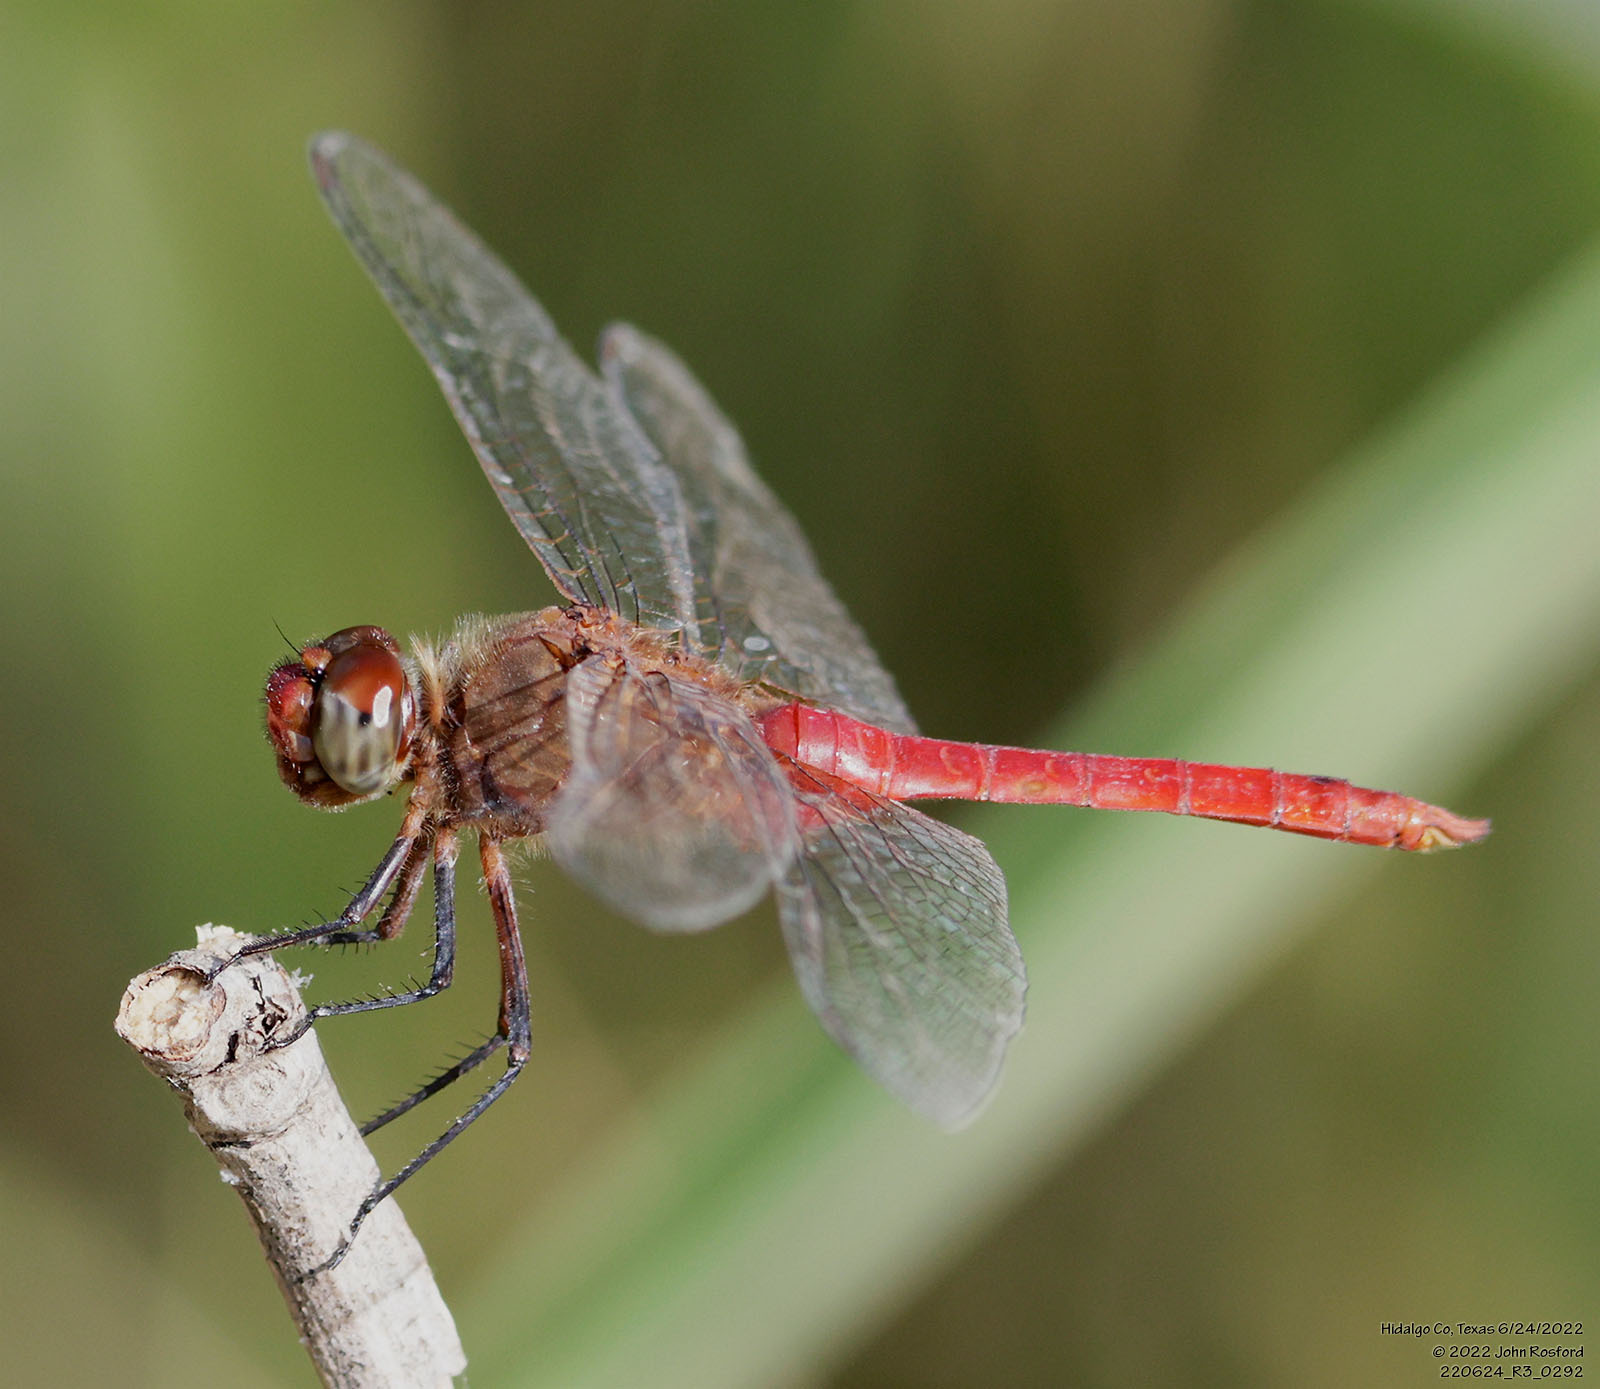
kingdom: Animalia
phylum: Arthropoda
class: Insecta
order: Odonata
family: Libellulidae
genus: Brachymesia
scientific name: Brachymesia furcata
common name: Red-taled pennant
